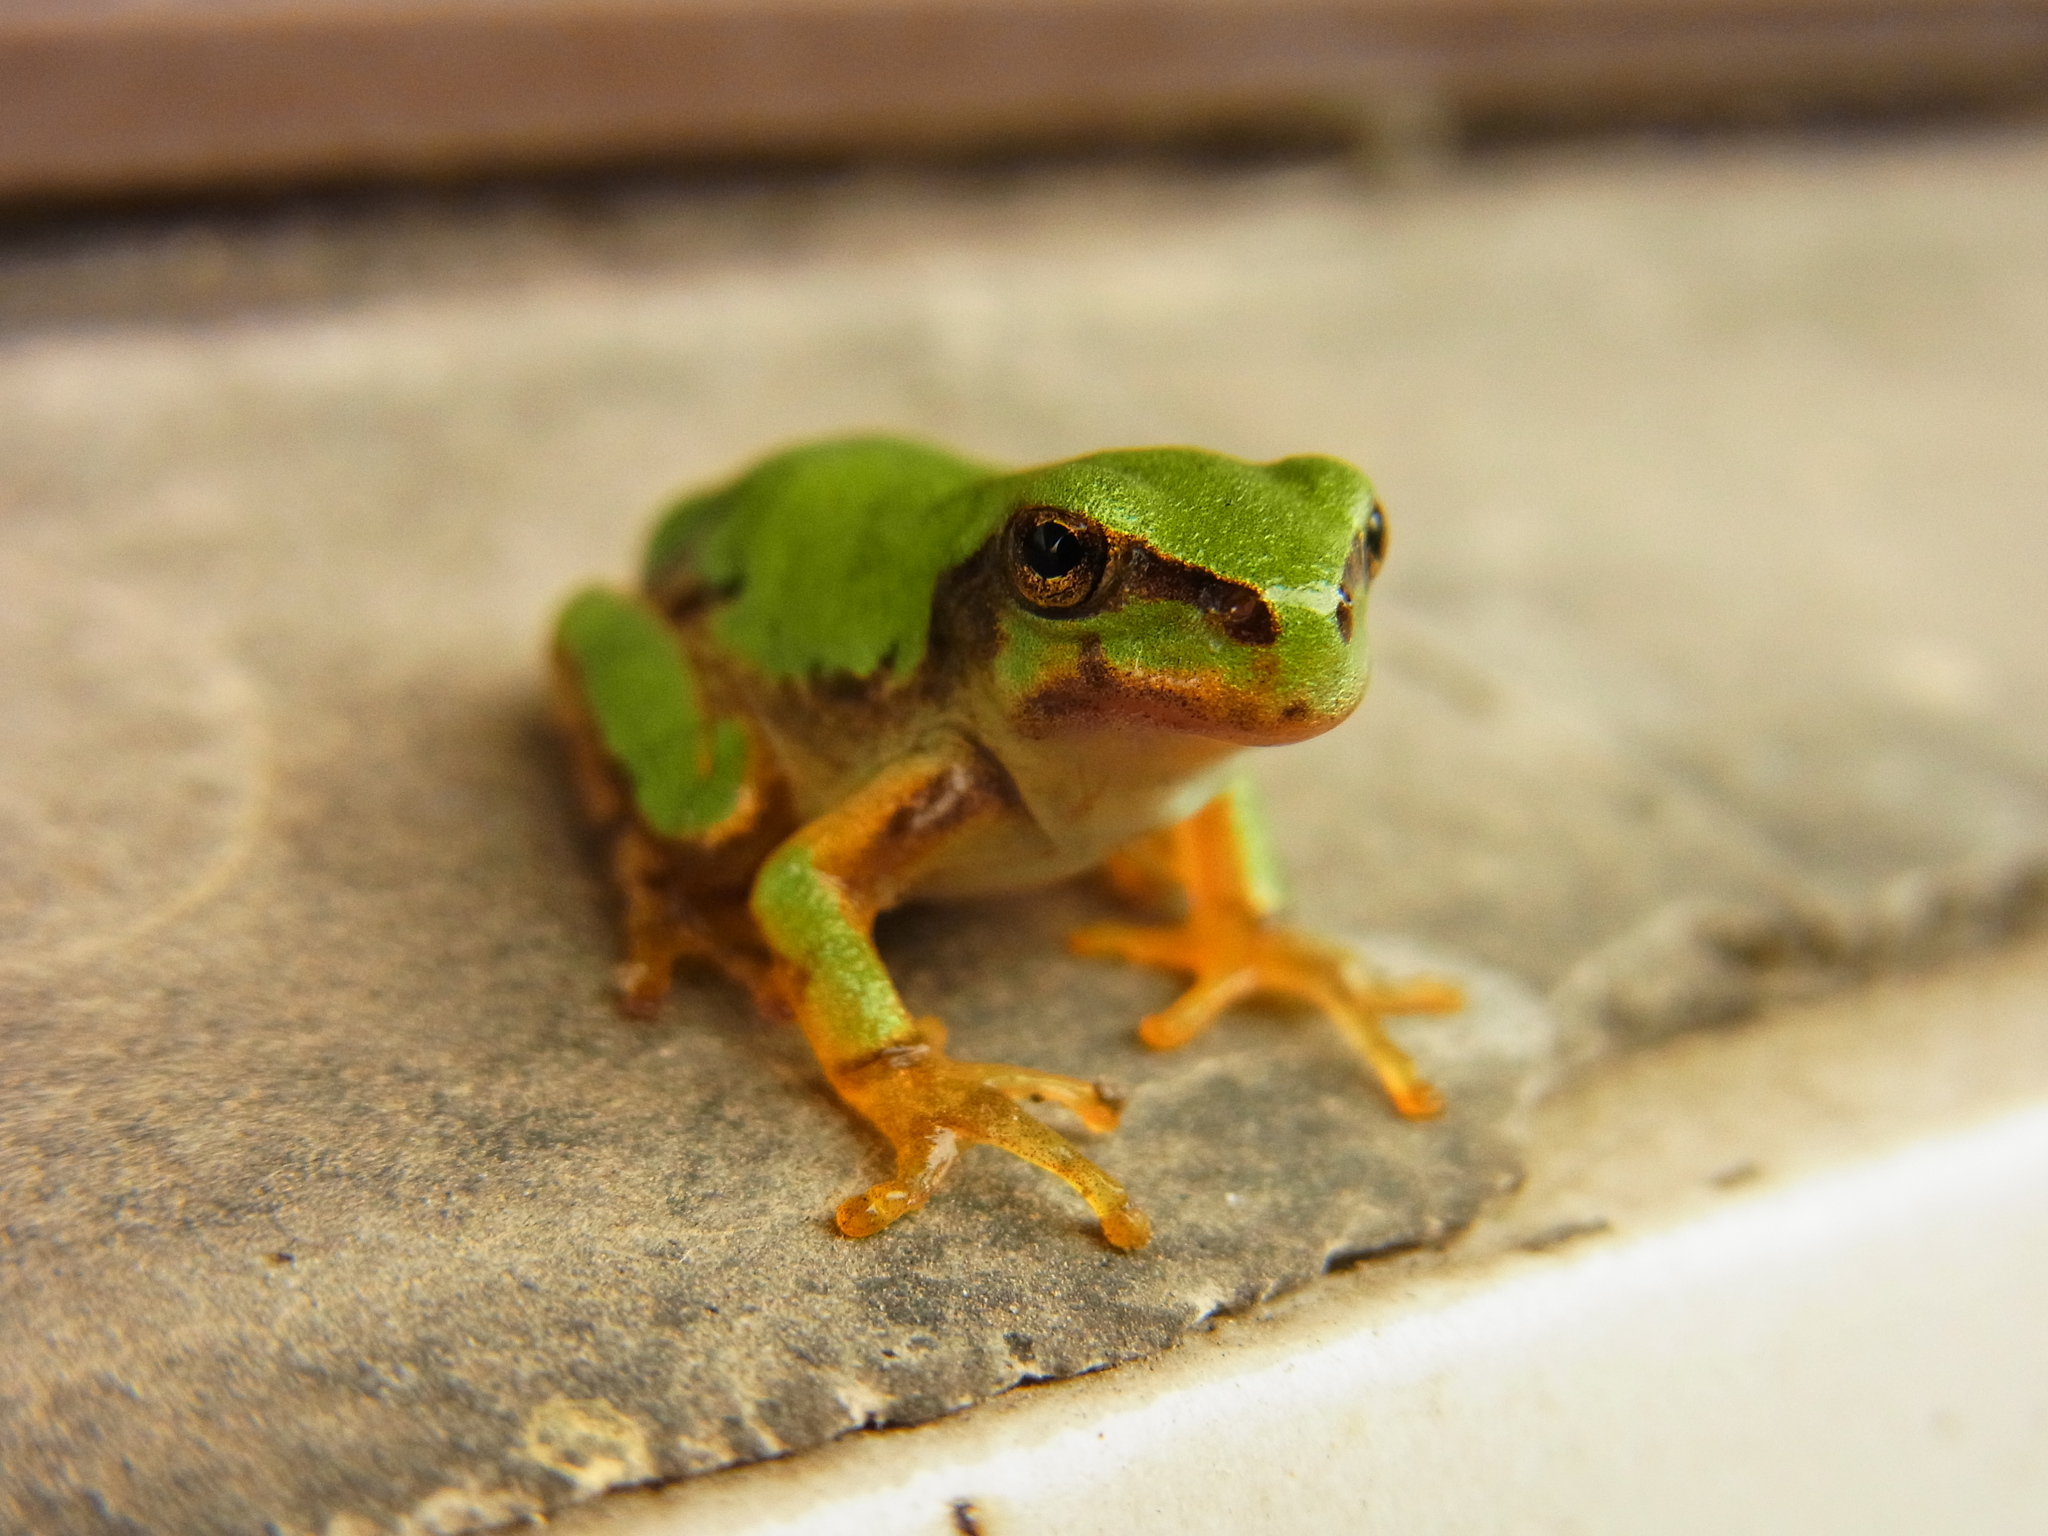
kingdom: Animalia
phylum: Chordata
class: Amphibia
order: Anura
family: Hylidae
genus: Dryophytes
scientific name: Dryophytes japonicus
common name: Japanese treefrog
